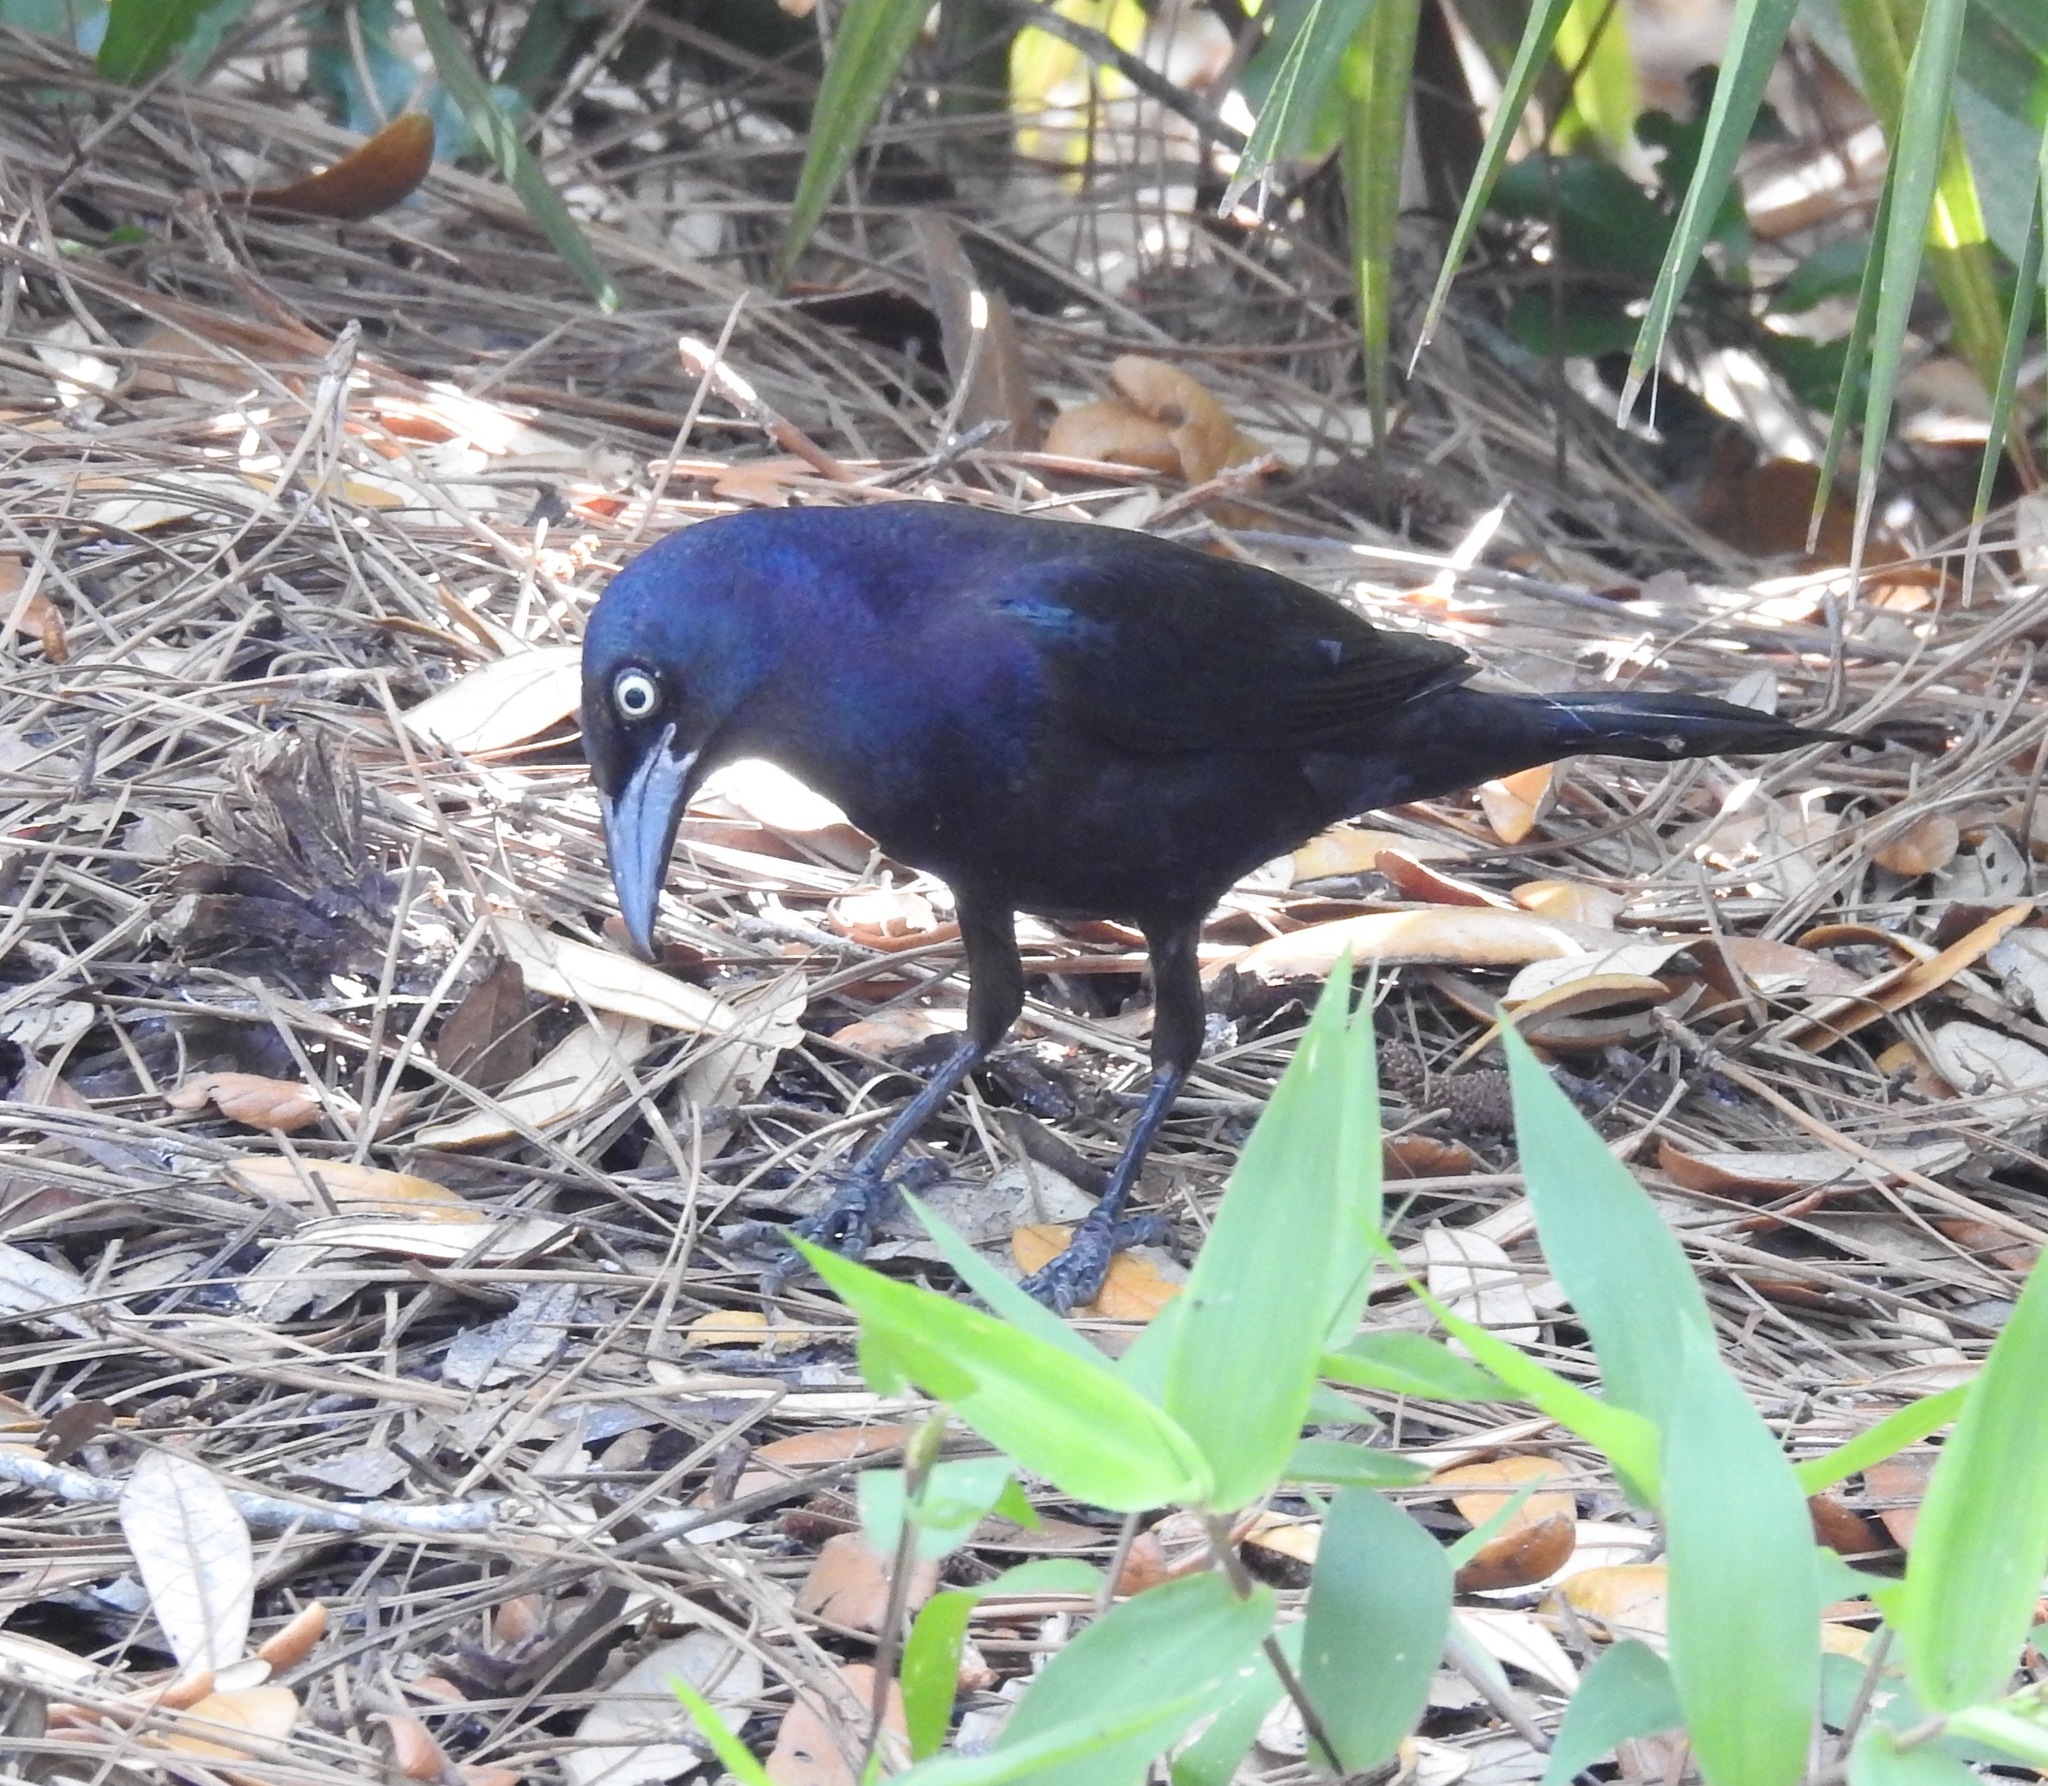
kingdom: Animalia
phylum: Chordata
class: Aves
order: Passeriformes
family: Icteridae
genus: Quiscalus
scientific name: Quiscalus quiscula
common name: Common grackle
